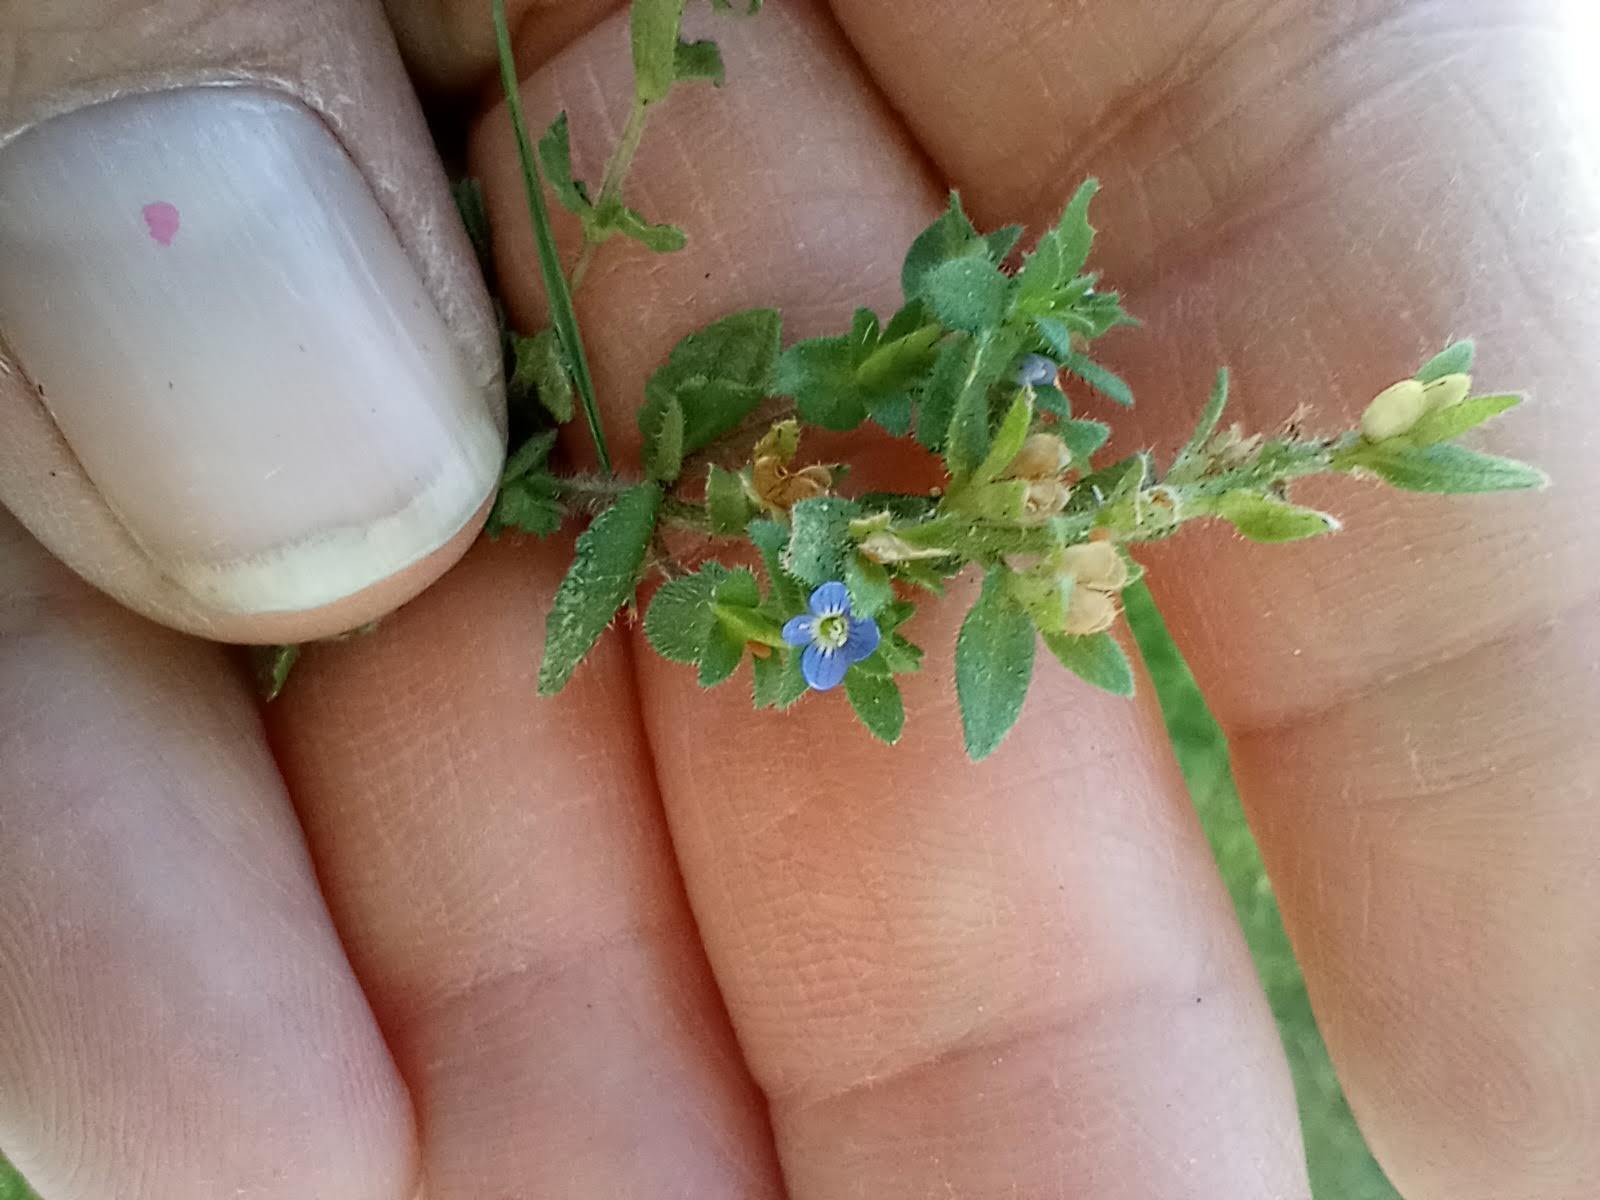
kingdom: Plantae
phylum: Tracheophyta
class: Magnoliopsida
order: Lamiales
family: Plantaginaceae
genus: Veronica
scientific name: Veronica arvensis
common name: Corn speedwell
